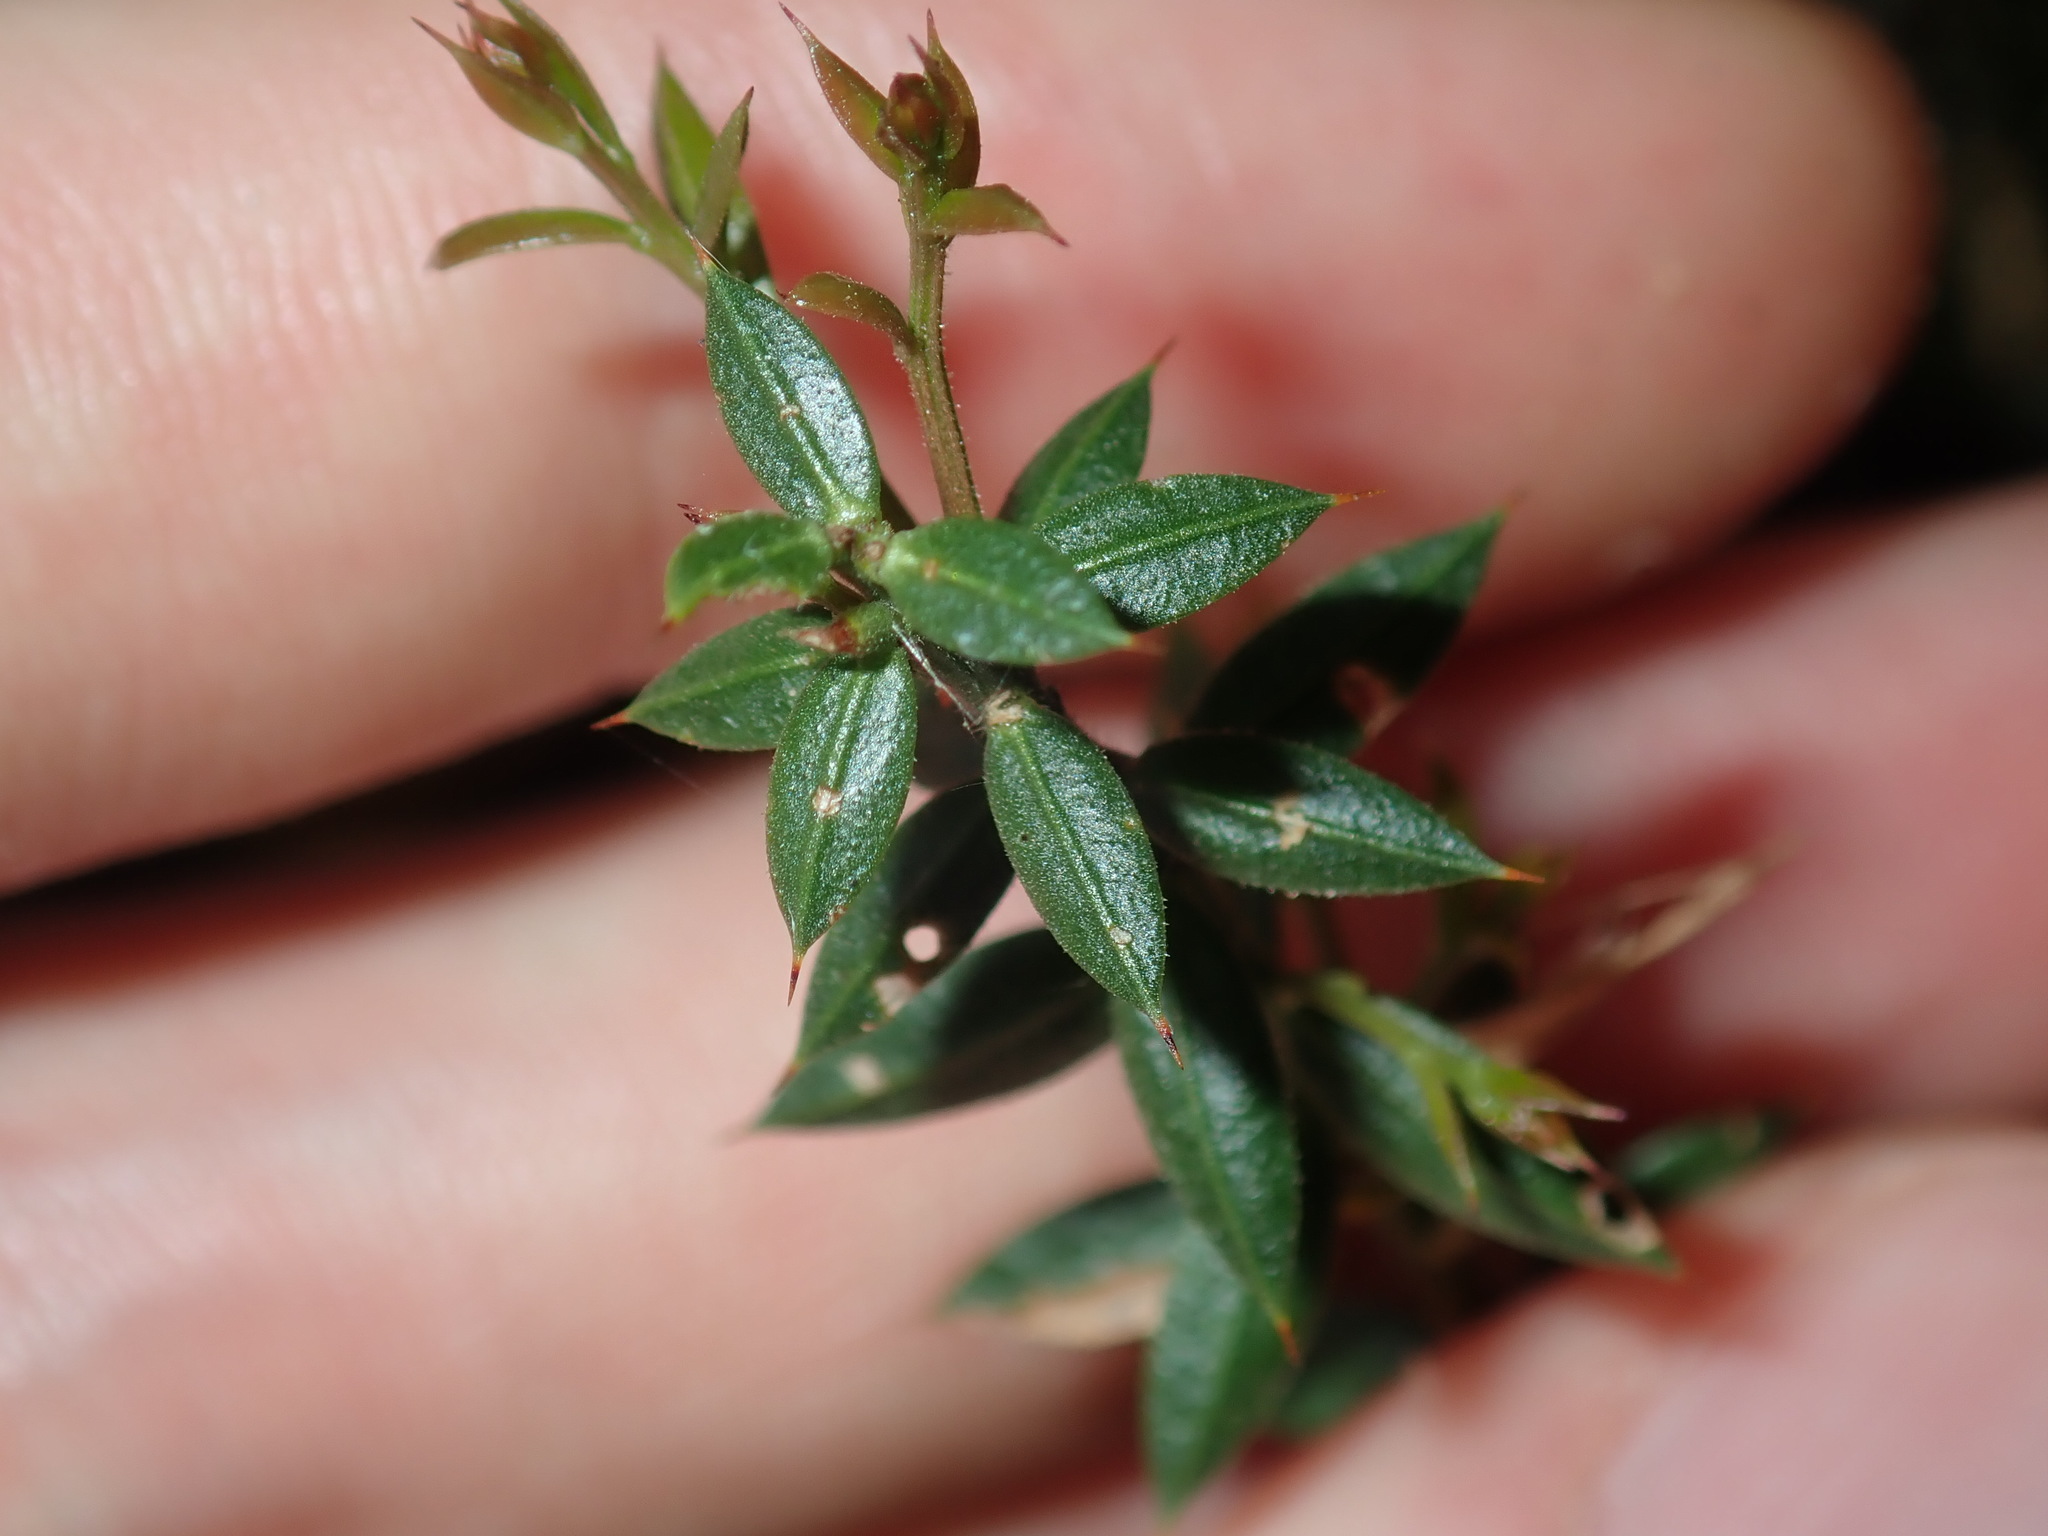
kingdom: Plantae
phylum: Tracheophyta
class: Magnoliopsida
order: Fabales
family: Fabaceae
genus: Daviesia
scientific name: Daviesia ulicifolia
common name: Gorse bitter-pea
